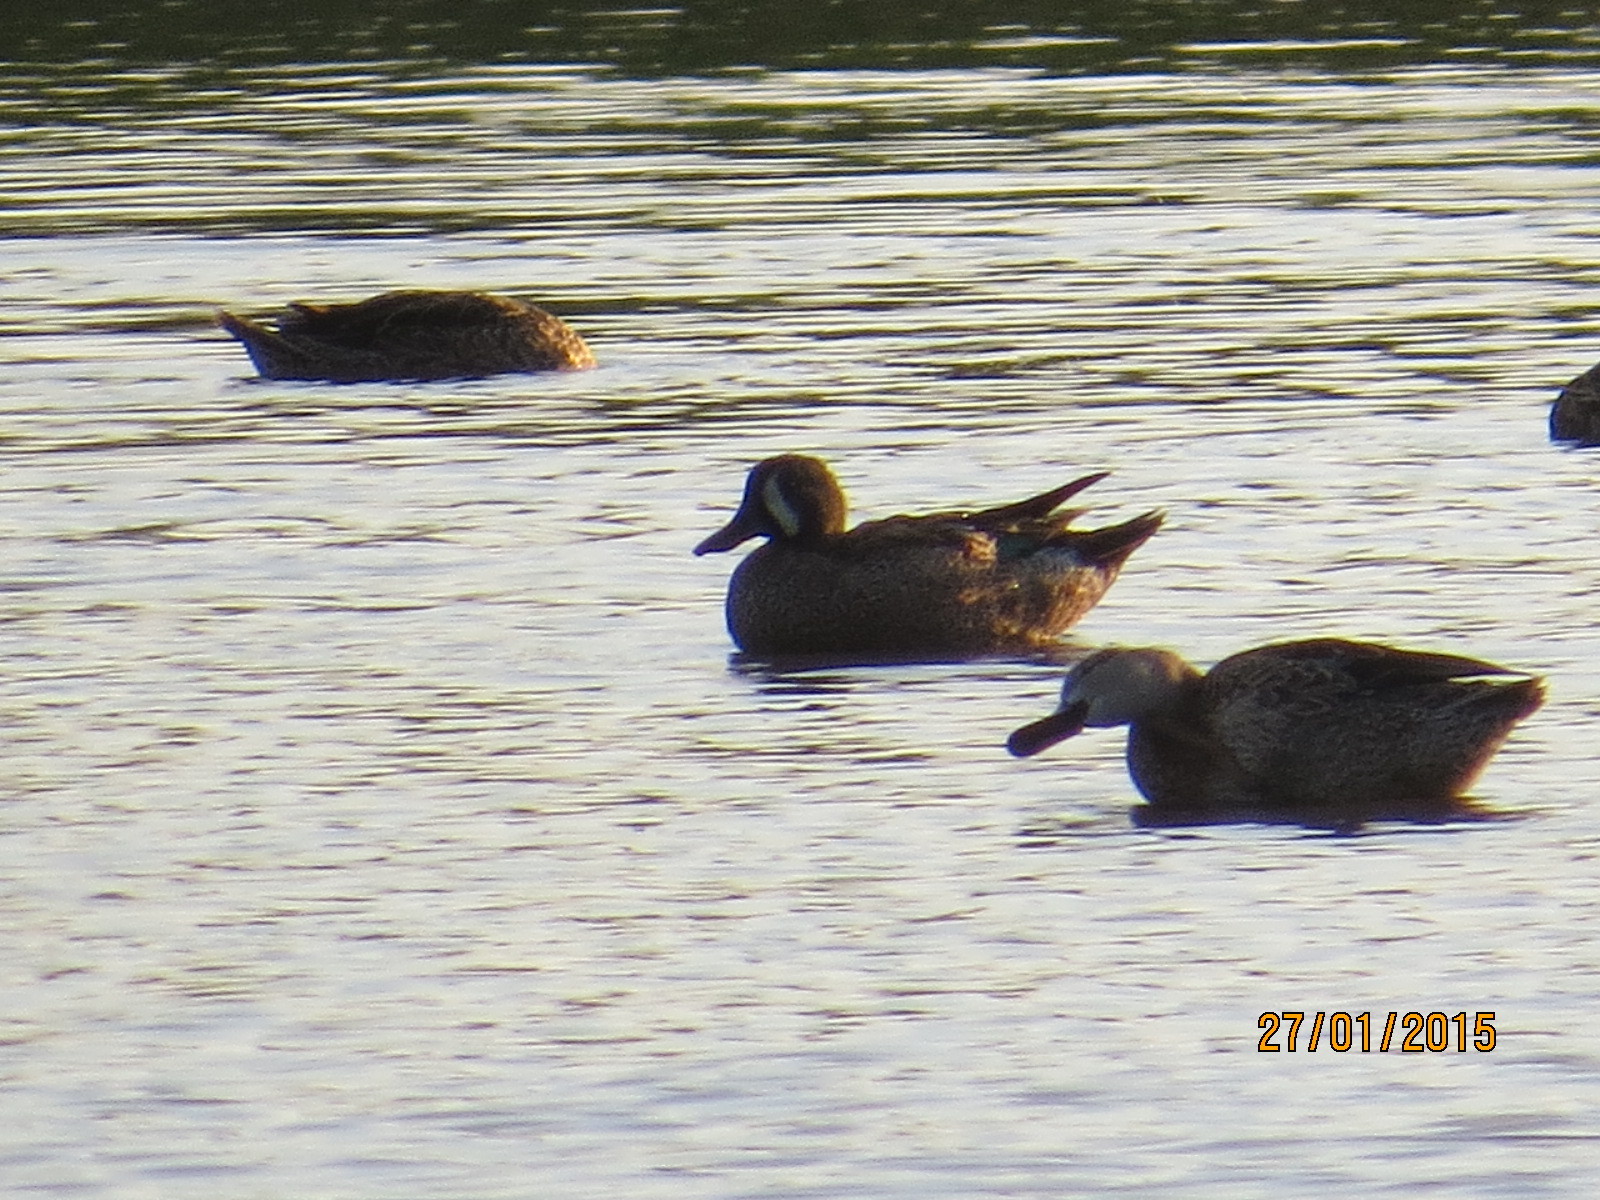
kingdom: Animalia
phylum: Chordata
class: Aves
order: Anseriformes
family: Anatidae
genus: Spatula
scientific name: Spatula discors
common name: Blue-winged teal
